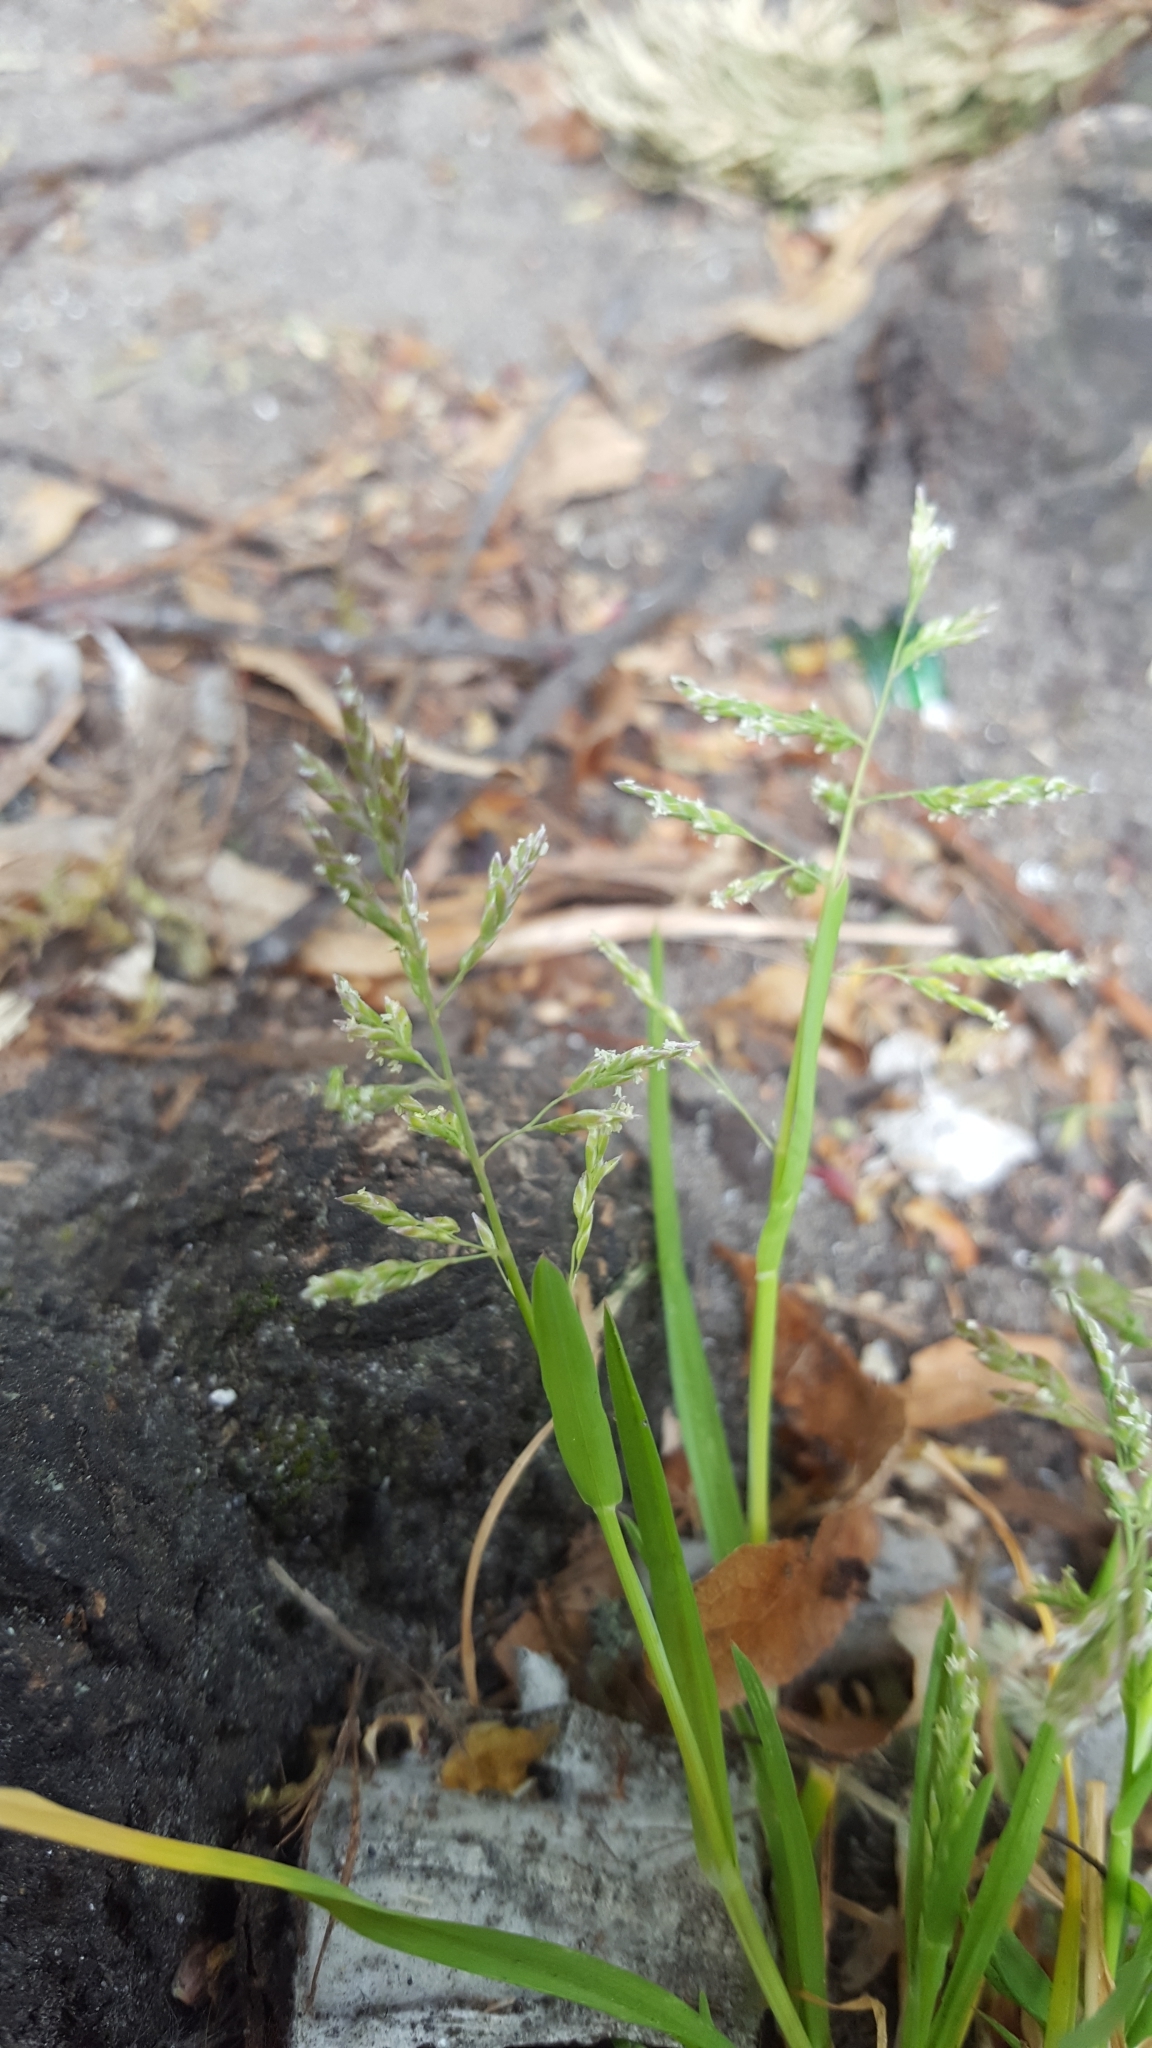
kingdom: Plantae
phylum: Tracheophyta
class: Liliopsida
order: Poales
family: Poaceae
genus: Poa
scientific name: Poa annua
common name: Annual bluegrass
